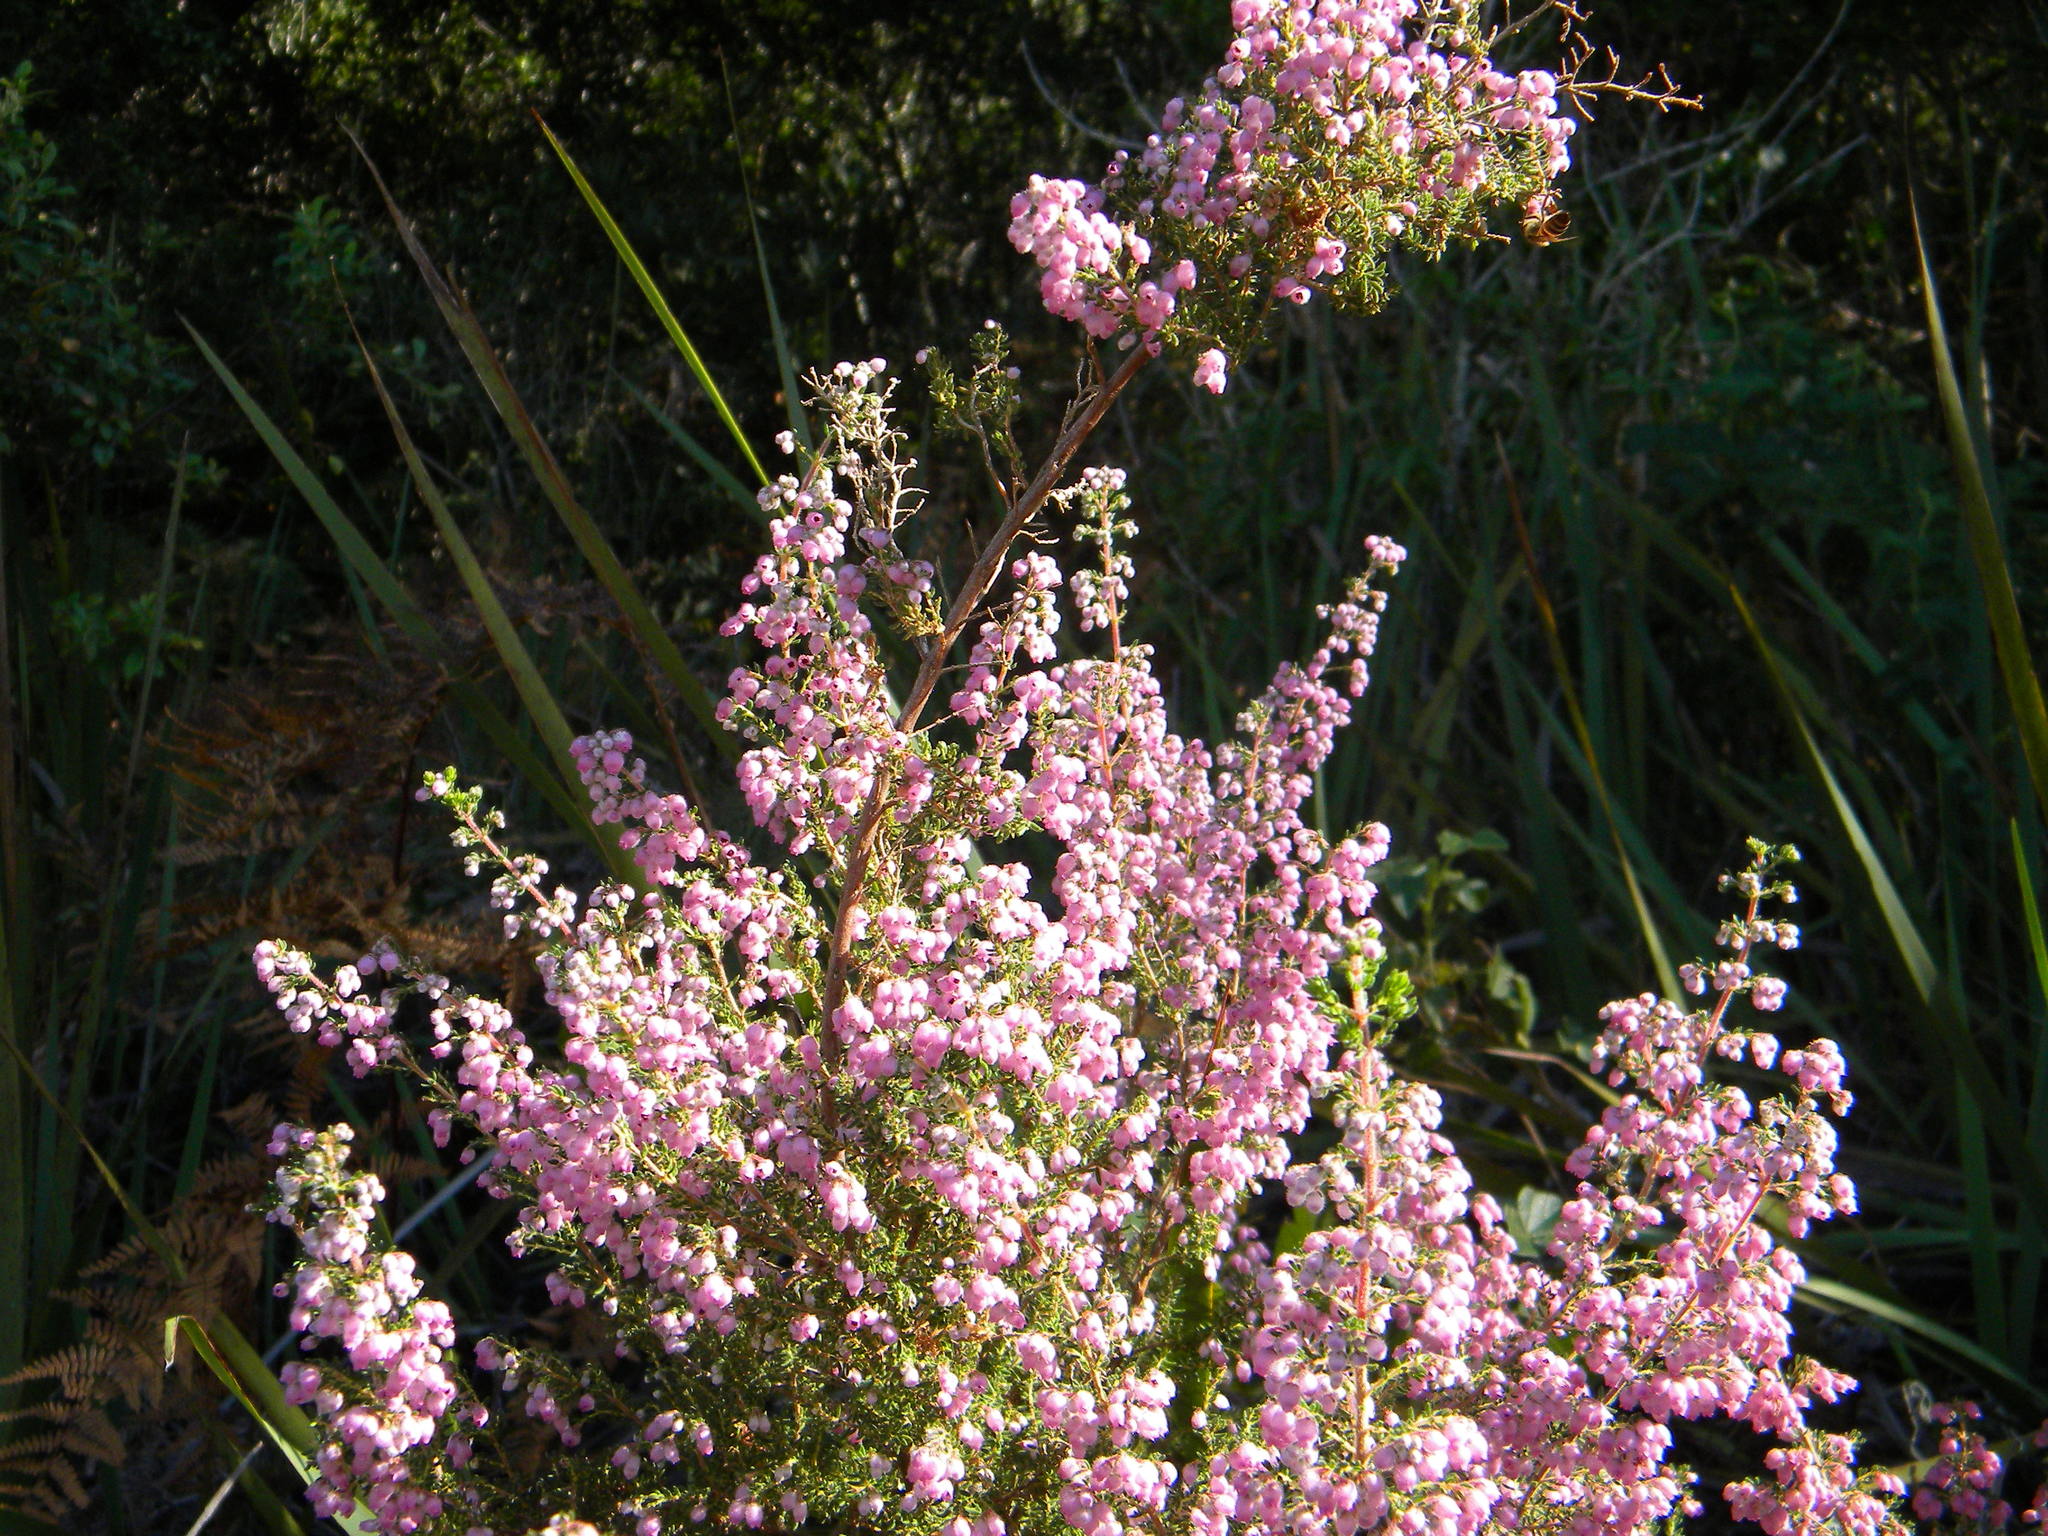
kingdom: Plantae
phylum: Tracheophyta
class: Magnoliopsida
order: Ericales
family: Ericaceae
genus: Erica
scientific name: Erica hirtiflora
